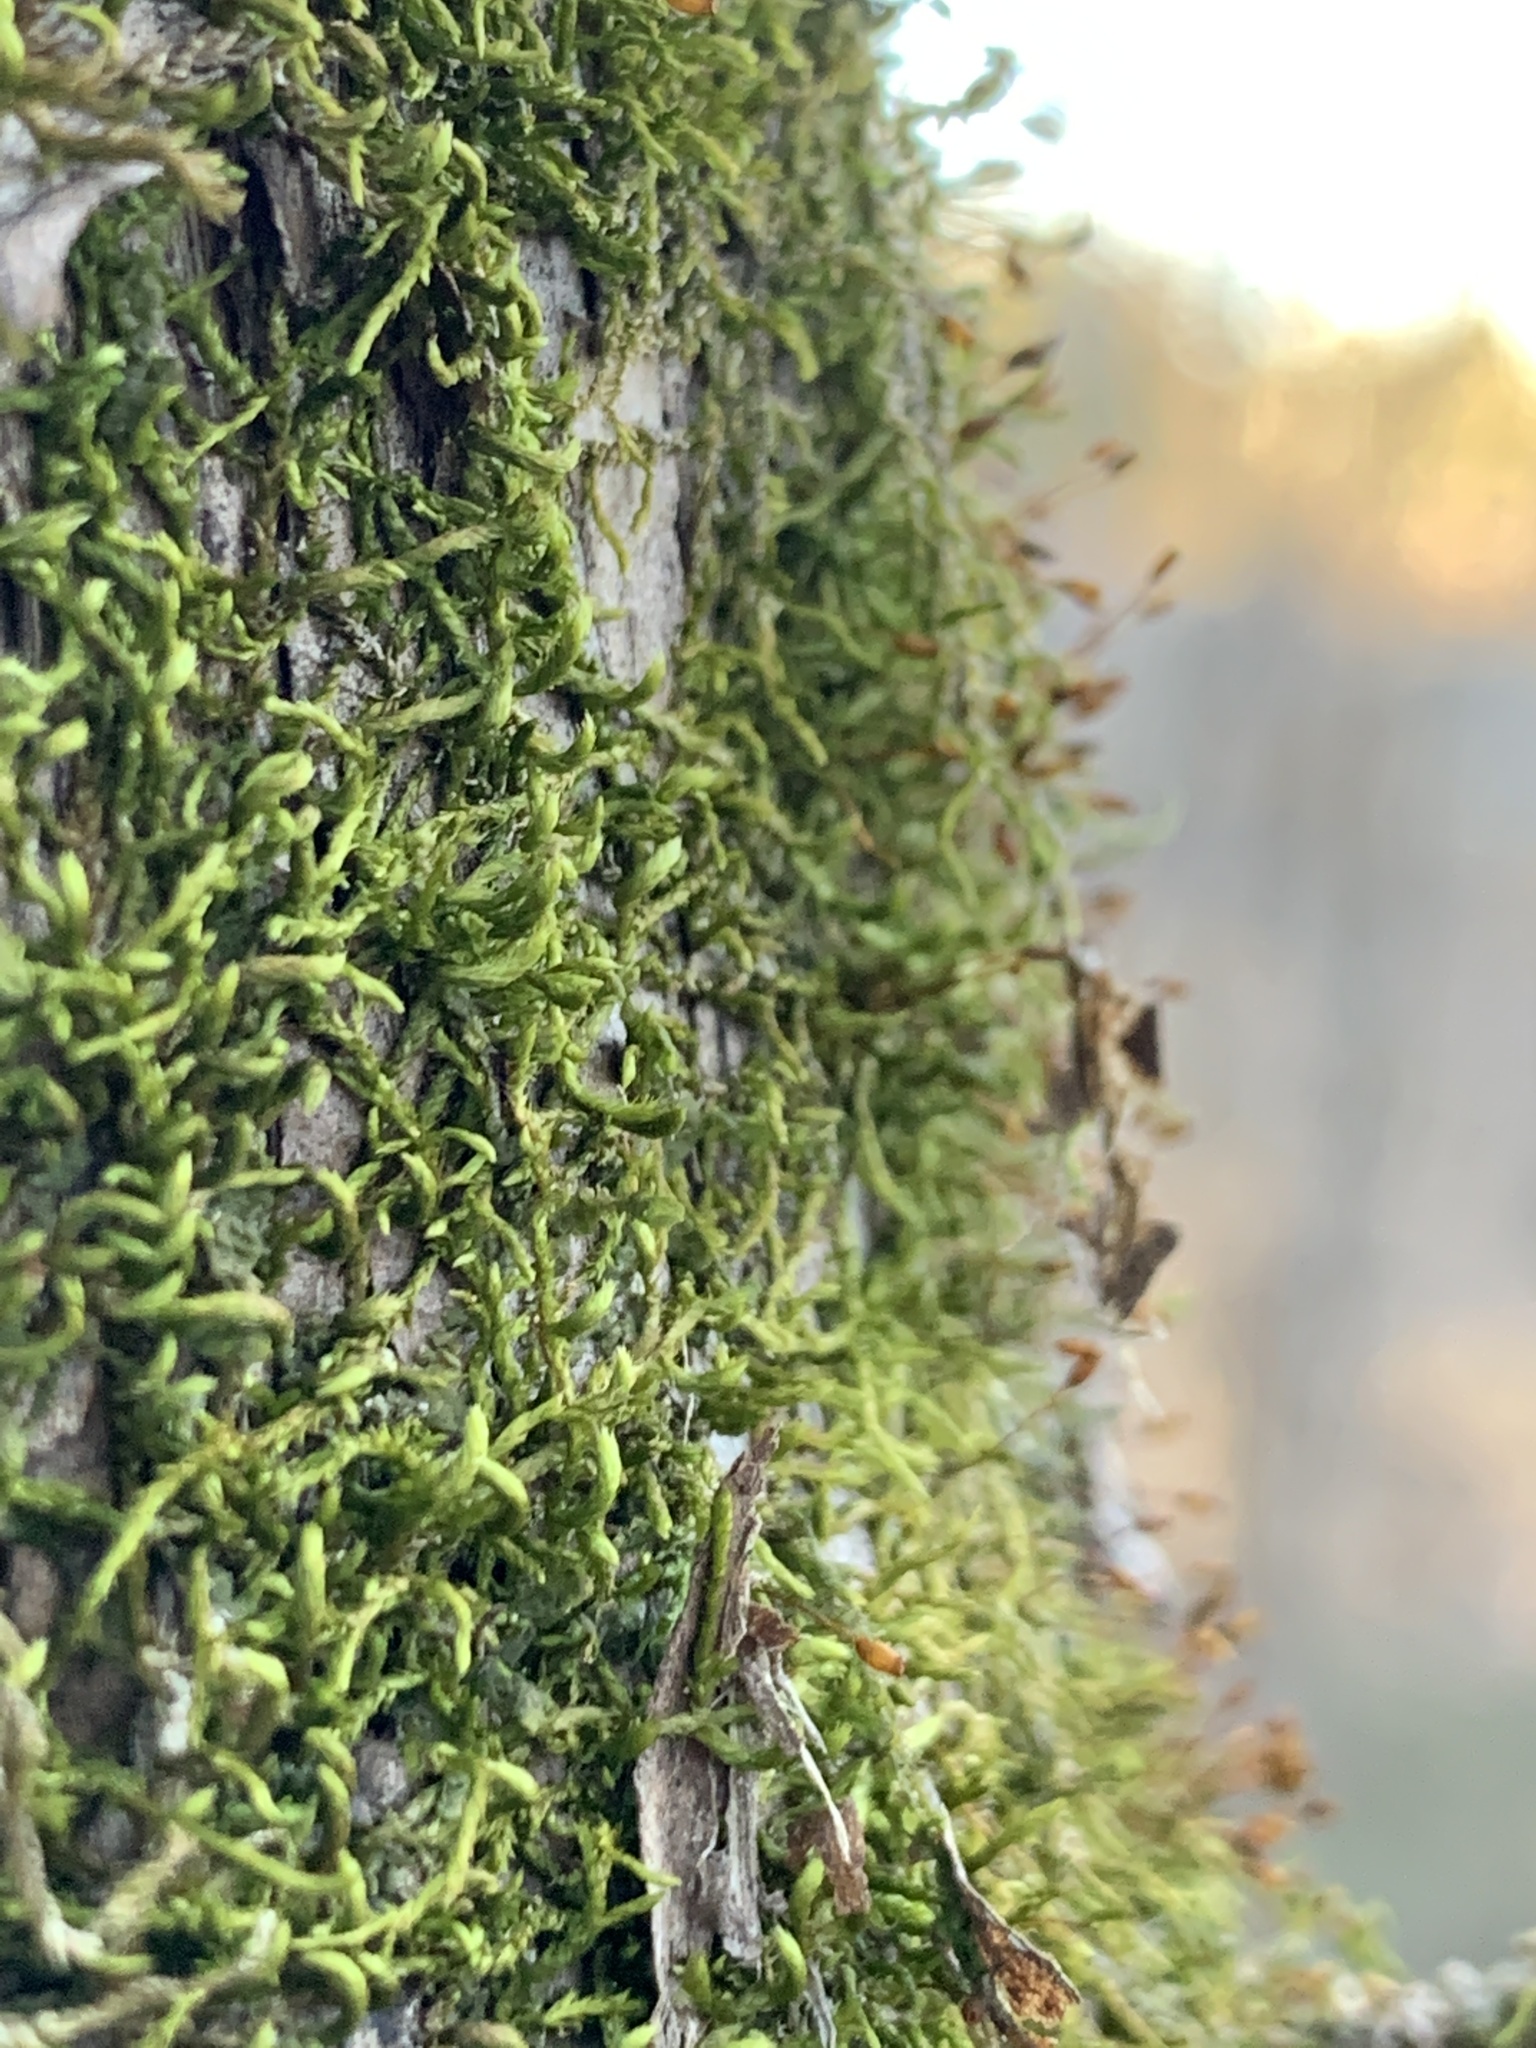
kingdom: Plantae
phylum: Bryophyta
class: Bryopsida
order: Hypnales
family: Leucodontaceae
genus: Leucodon
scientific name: Leucodon julaceus
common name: Smooth hook moss
